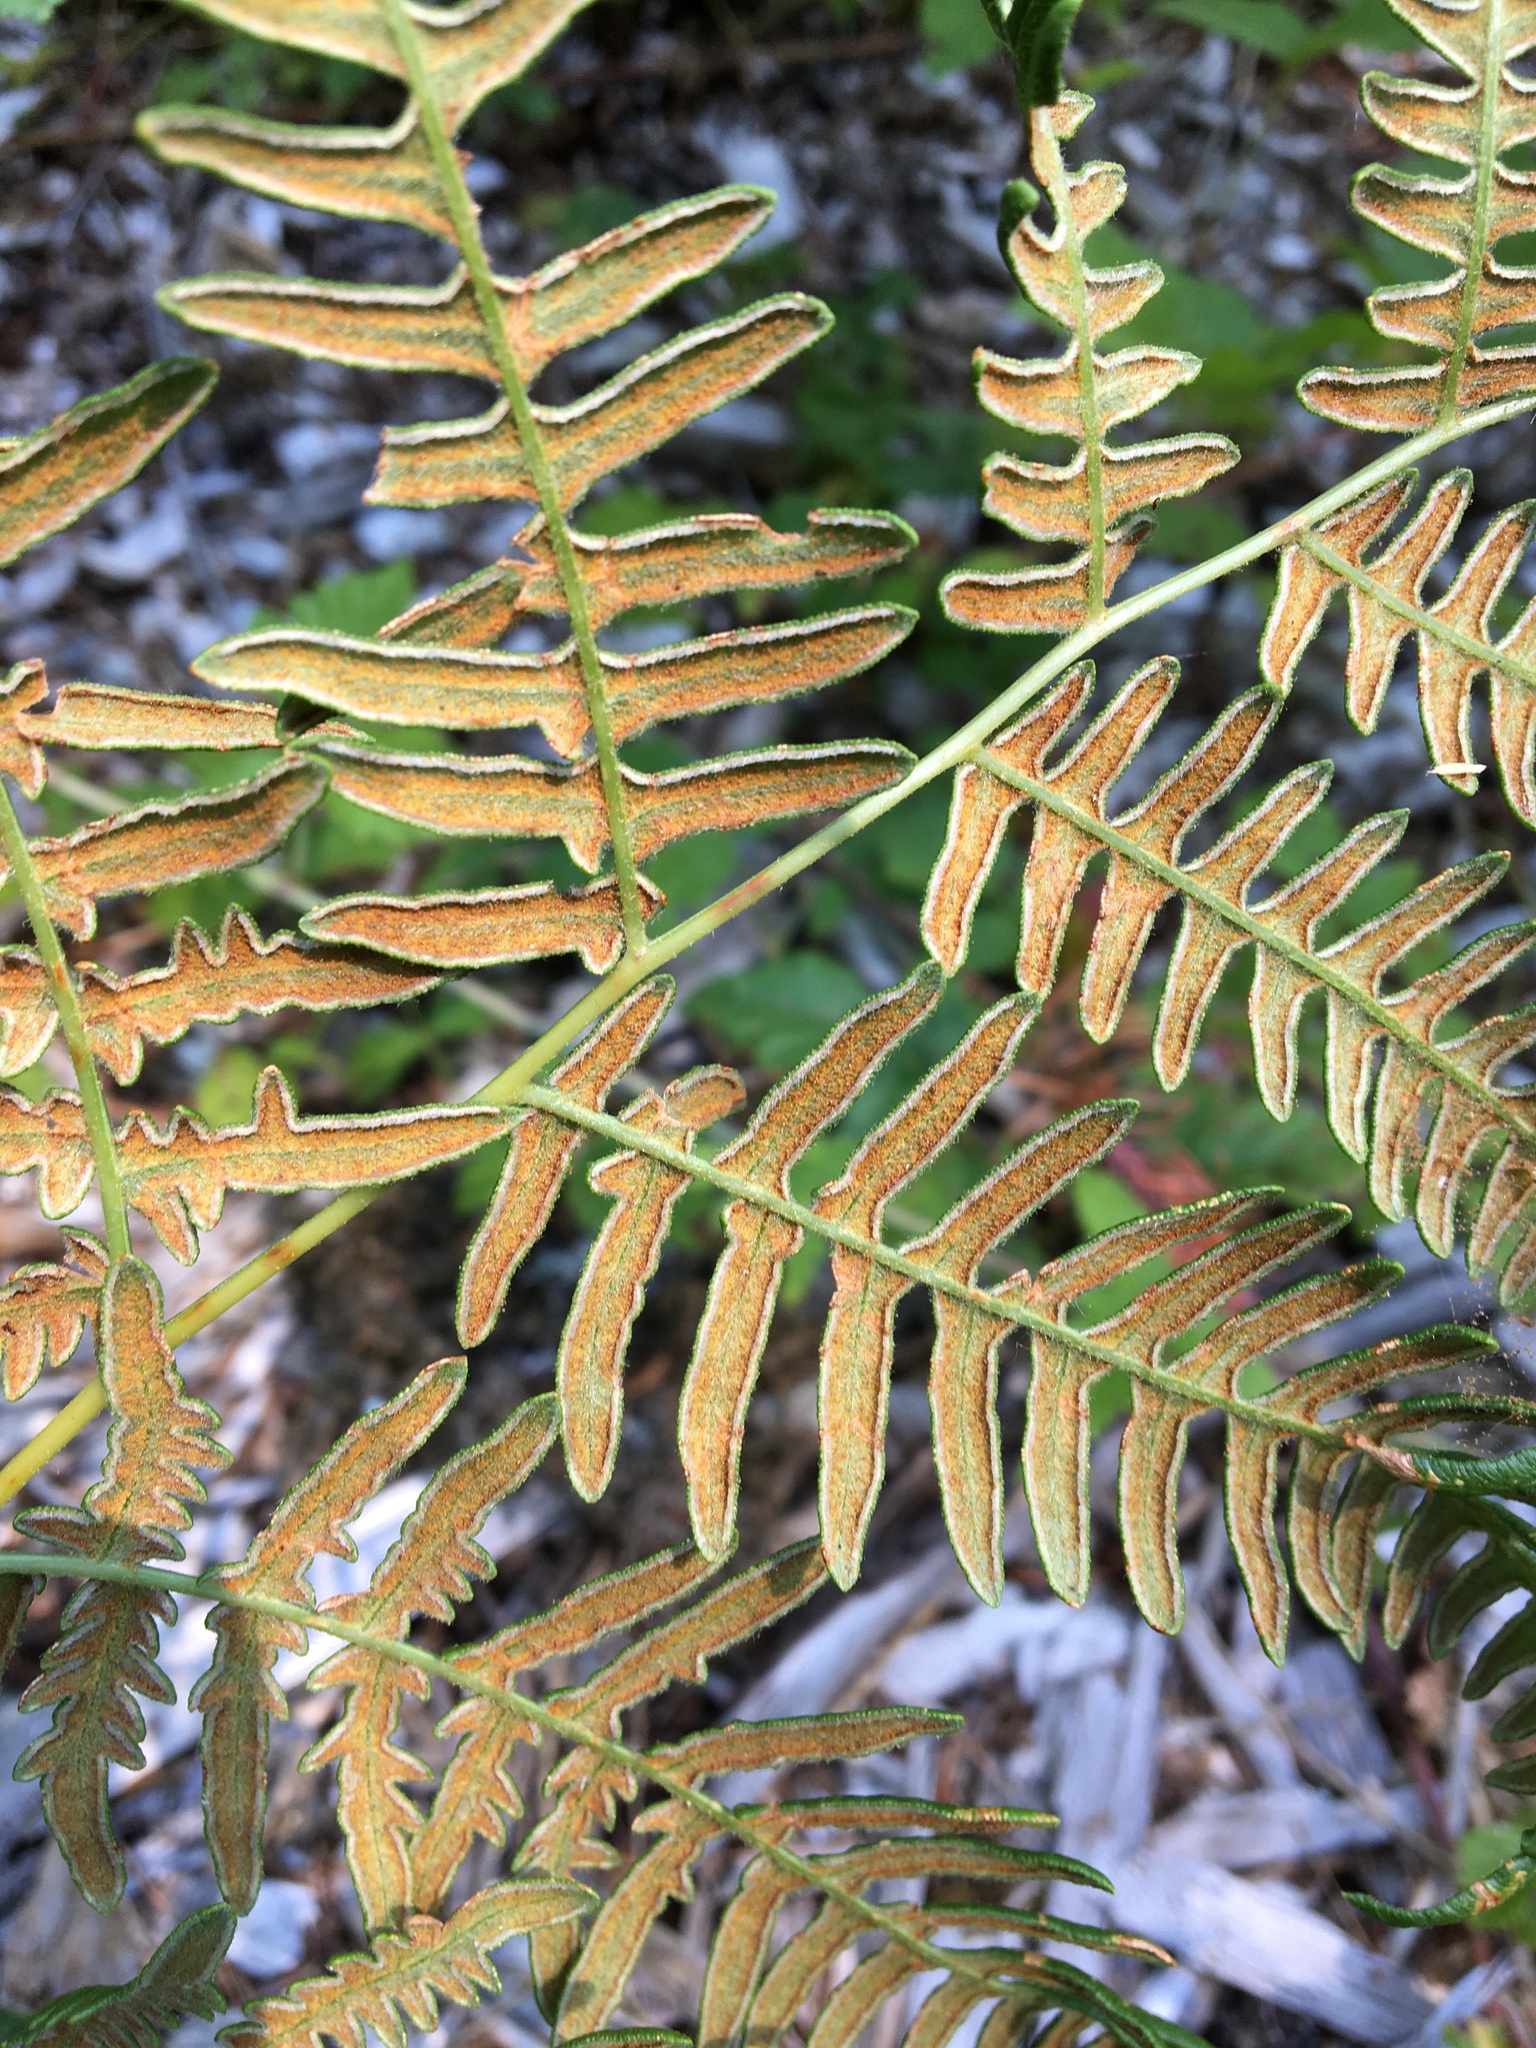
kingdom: Plantae
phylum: Tracheophyta
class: Polypodiopsida
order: Polypodiales
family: Dennstaedtiaceae
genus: Pteridium
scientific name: Pteridium aquilinum
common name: Bracken
